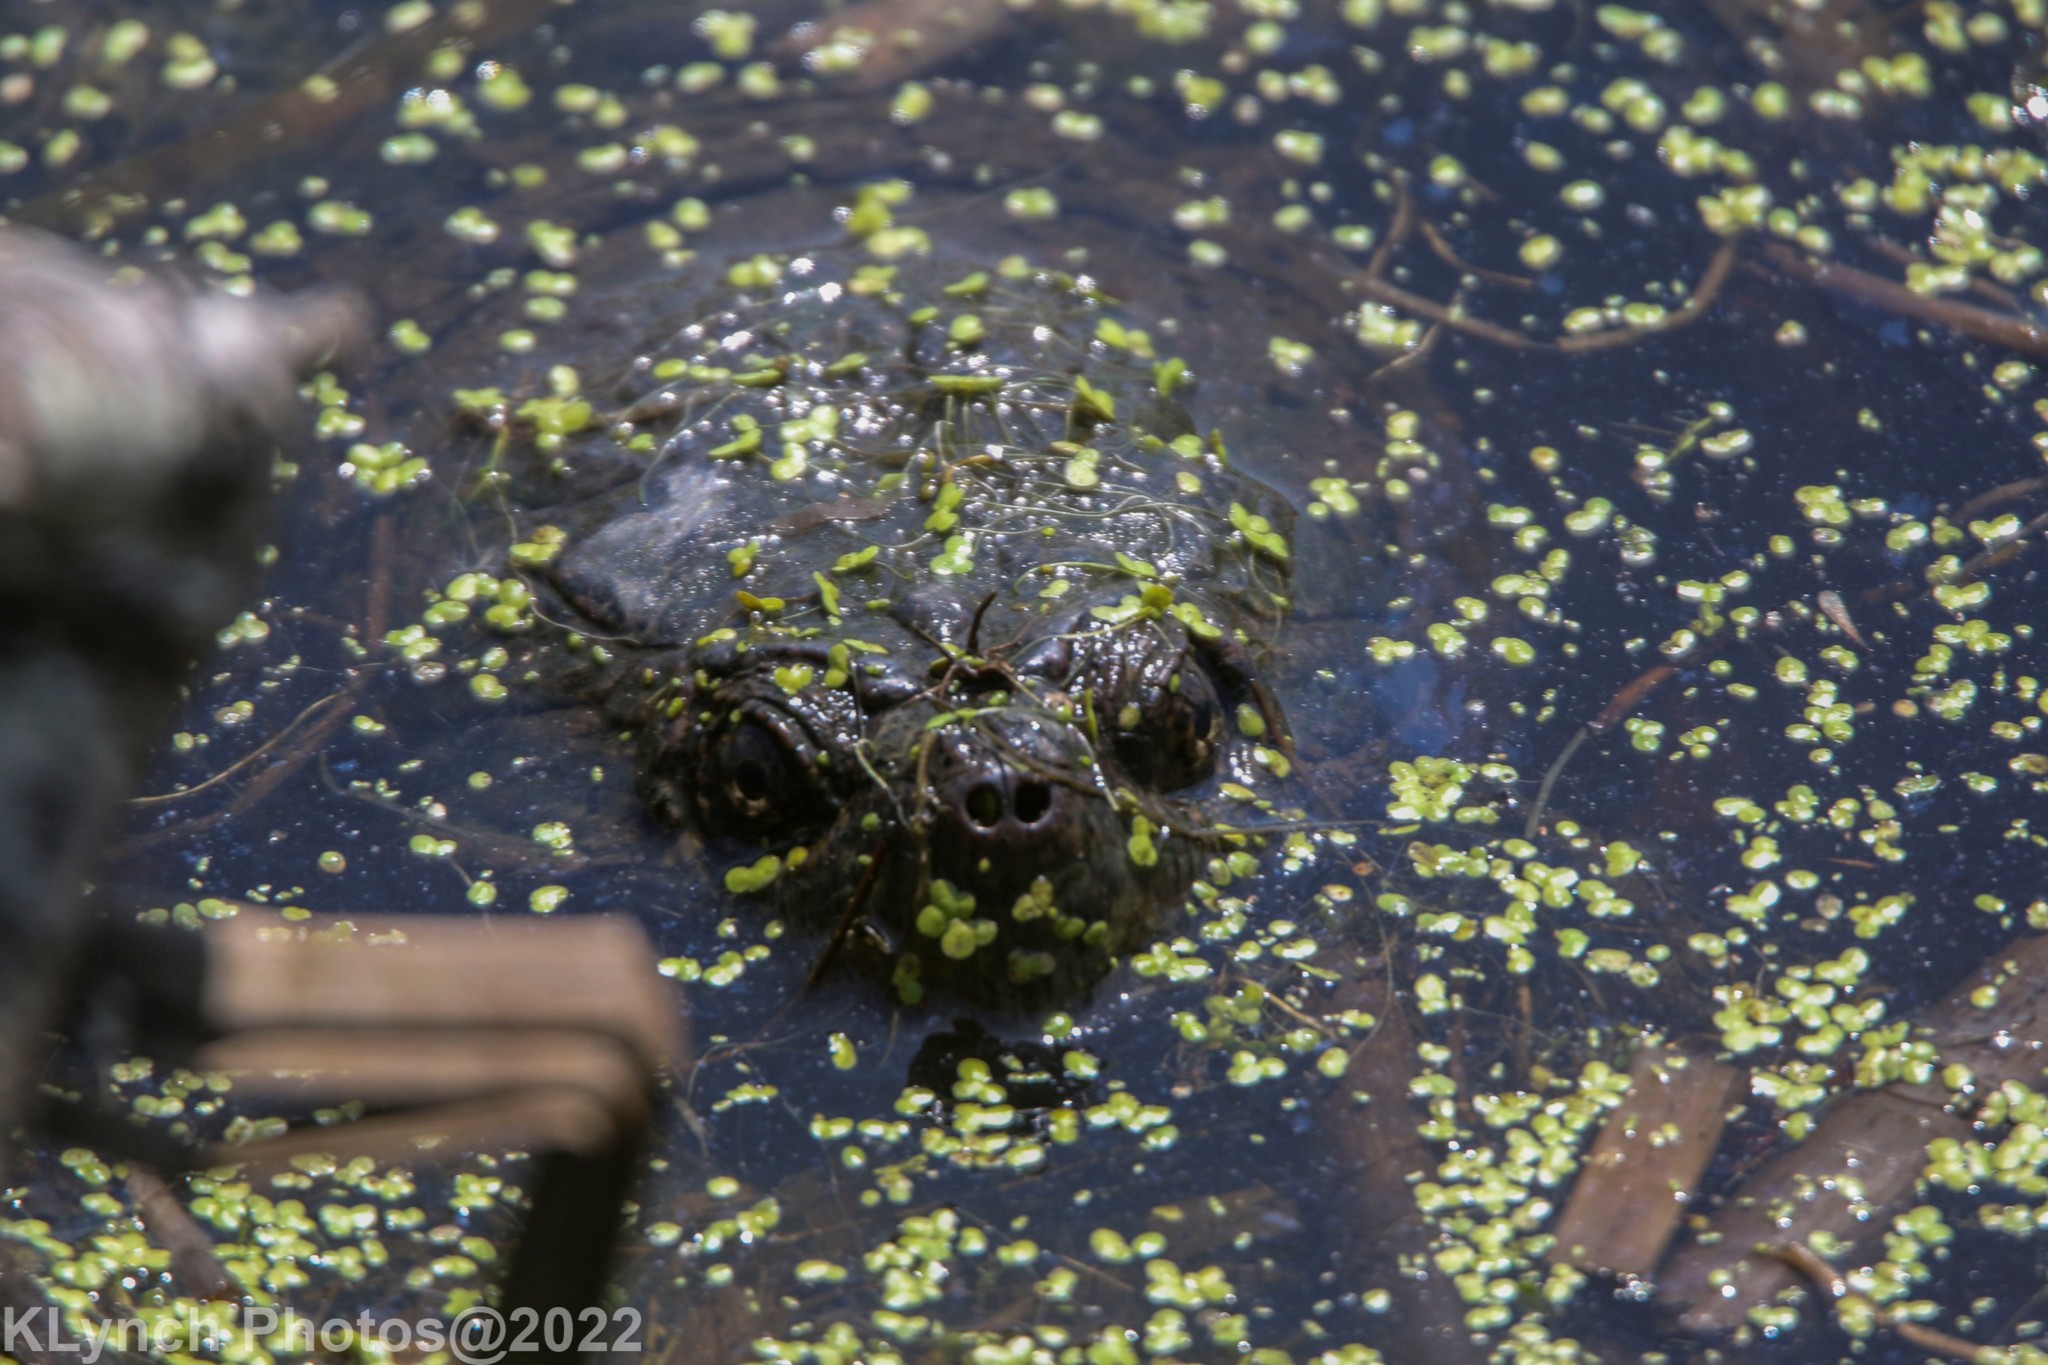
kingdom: Animalia
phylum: Chordata
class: Testudines
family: Chelydridae
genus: Chelydra
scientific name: Chelydra serpentina
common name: Common snapping turtle
